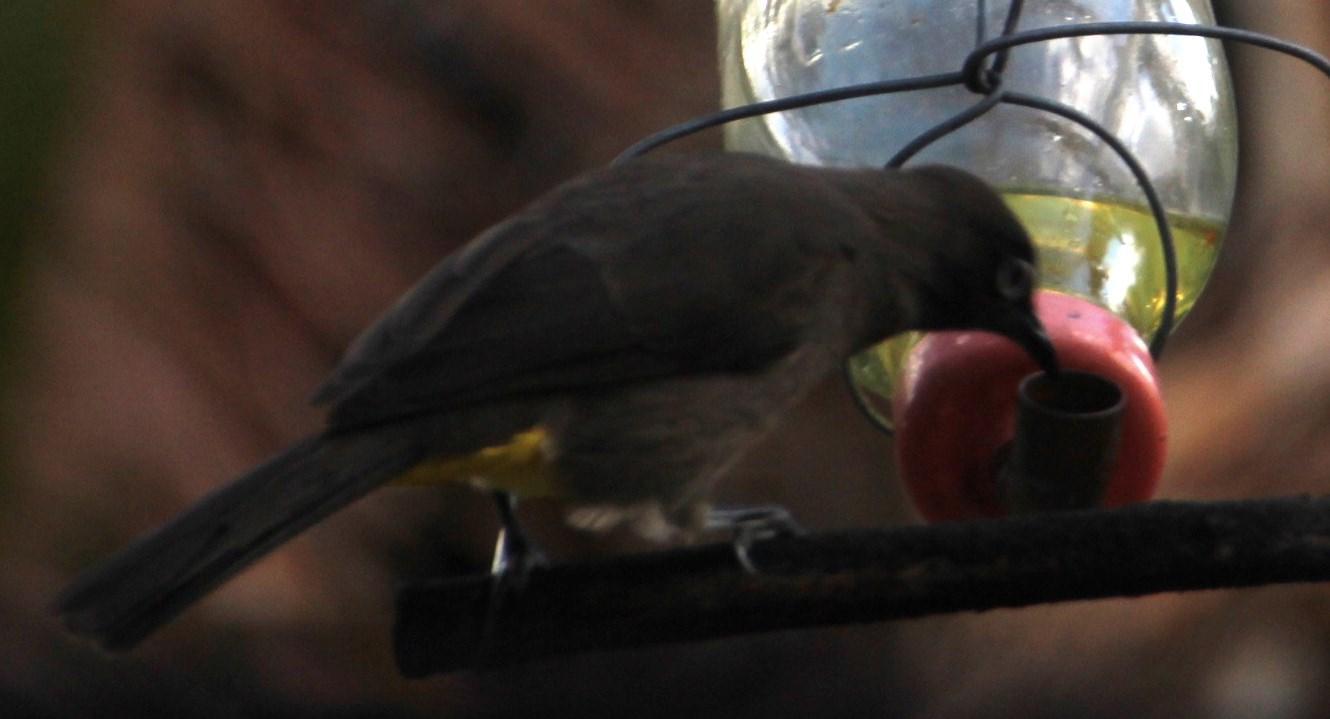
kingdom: Animalia
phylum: Chordata
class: Aves
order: Passeriformes
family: Pycnonotidae
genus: Pycnonotus
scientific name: Pycnonotus capensis
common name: Cape bulbul
